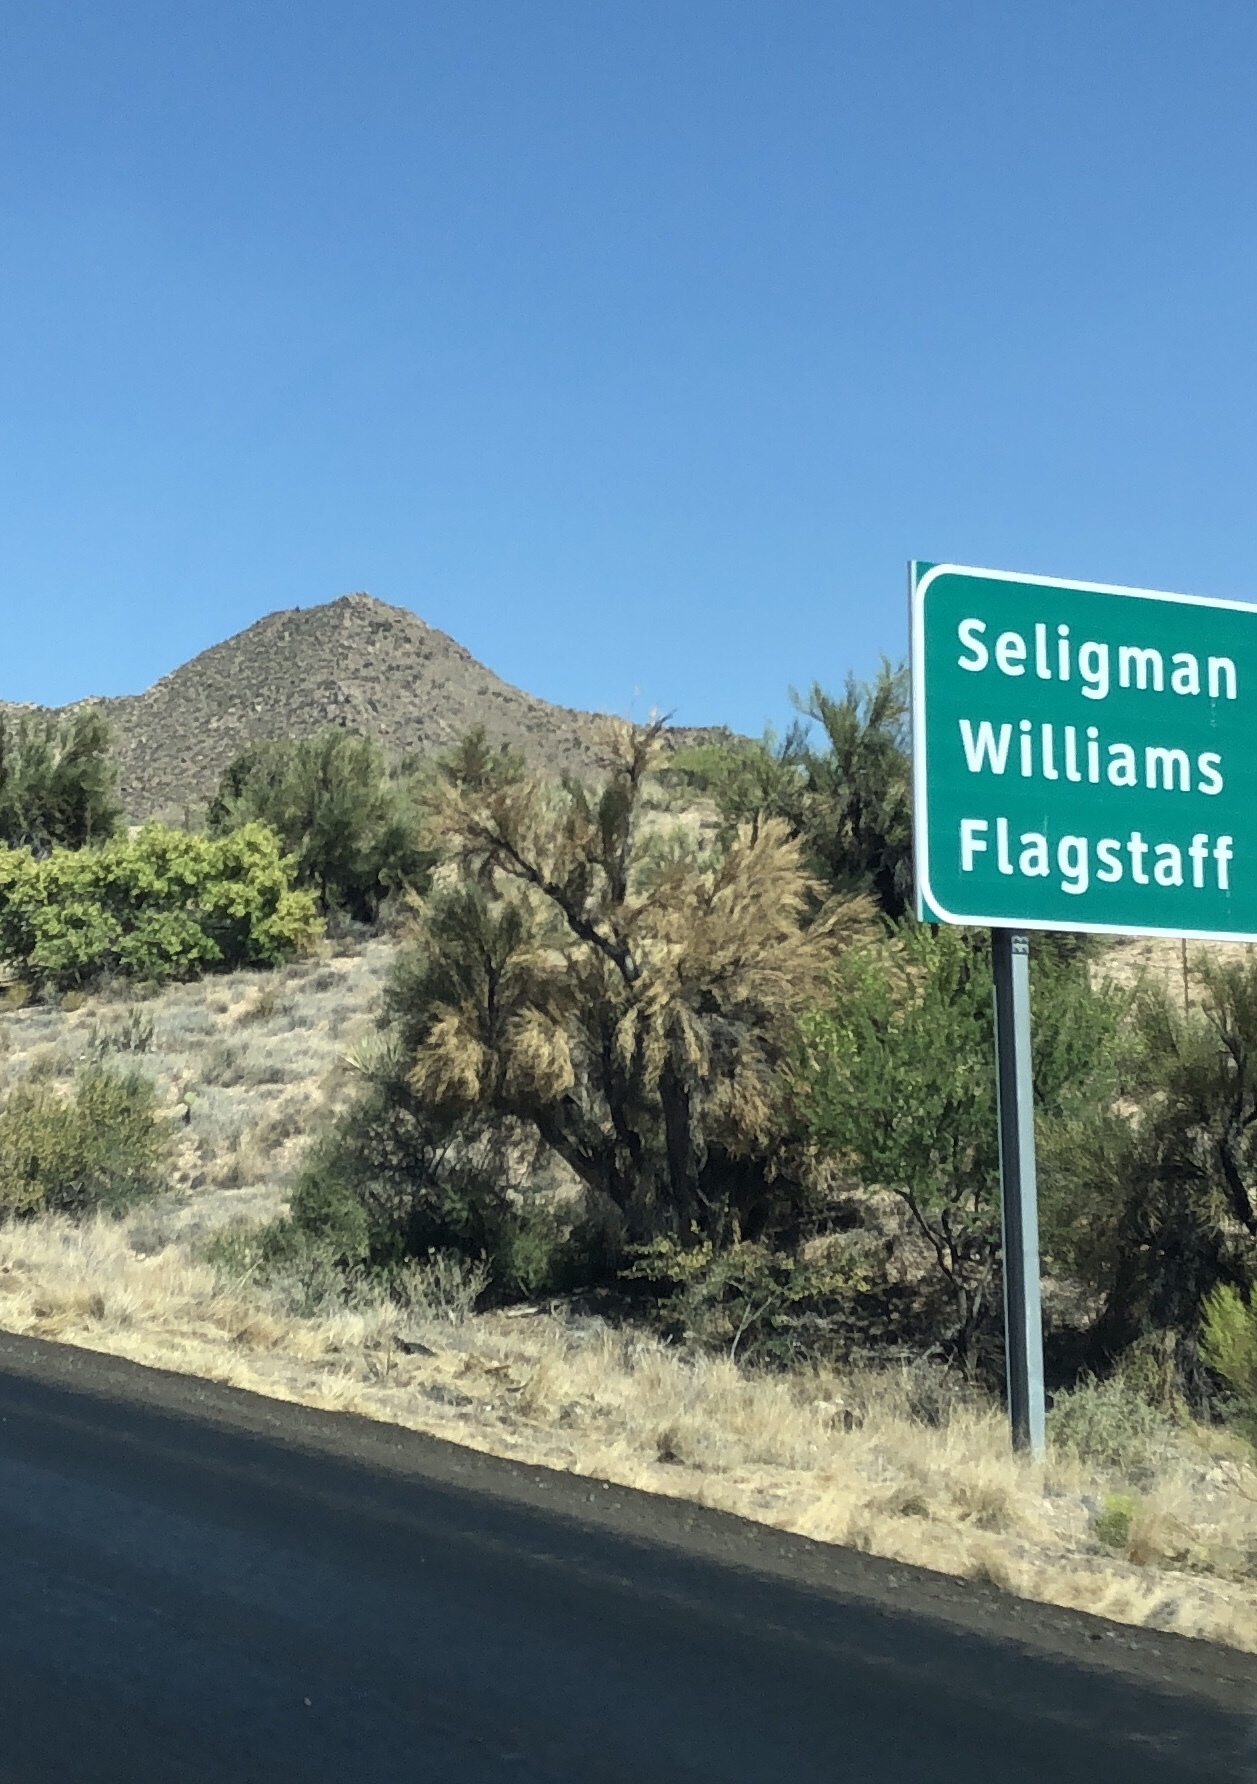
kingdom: Plantae
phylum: Tracheophyta
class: Magnoliopsida
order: Celastrales
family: Celastraceae
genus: Canotia
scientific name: Canotia holacantha
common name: Crucifixion thorns
